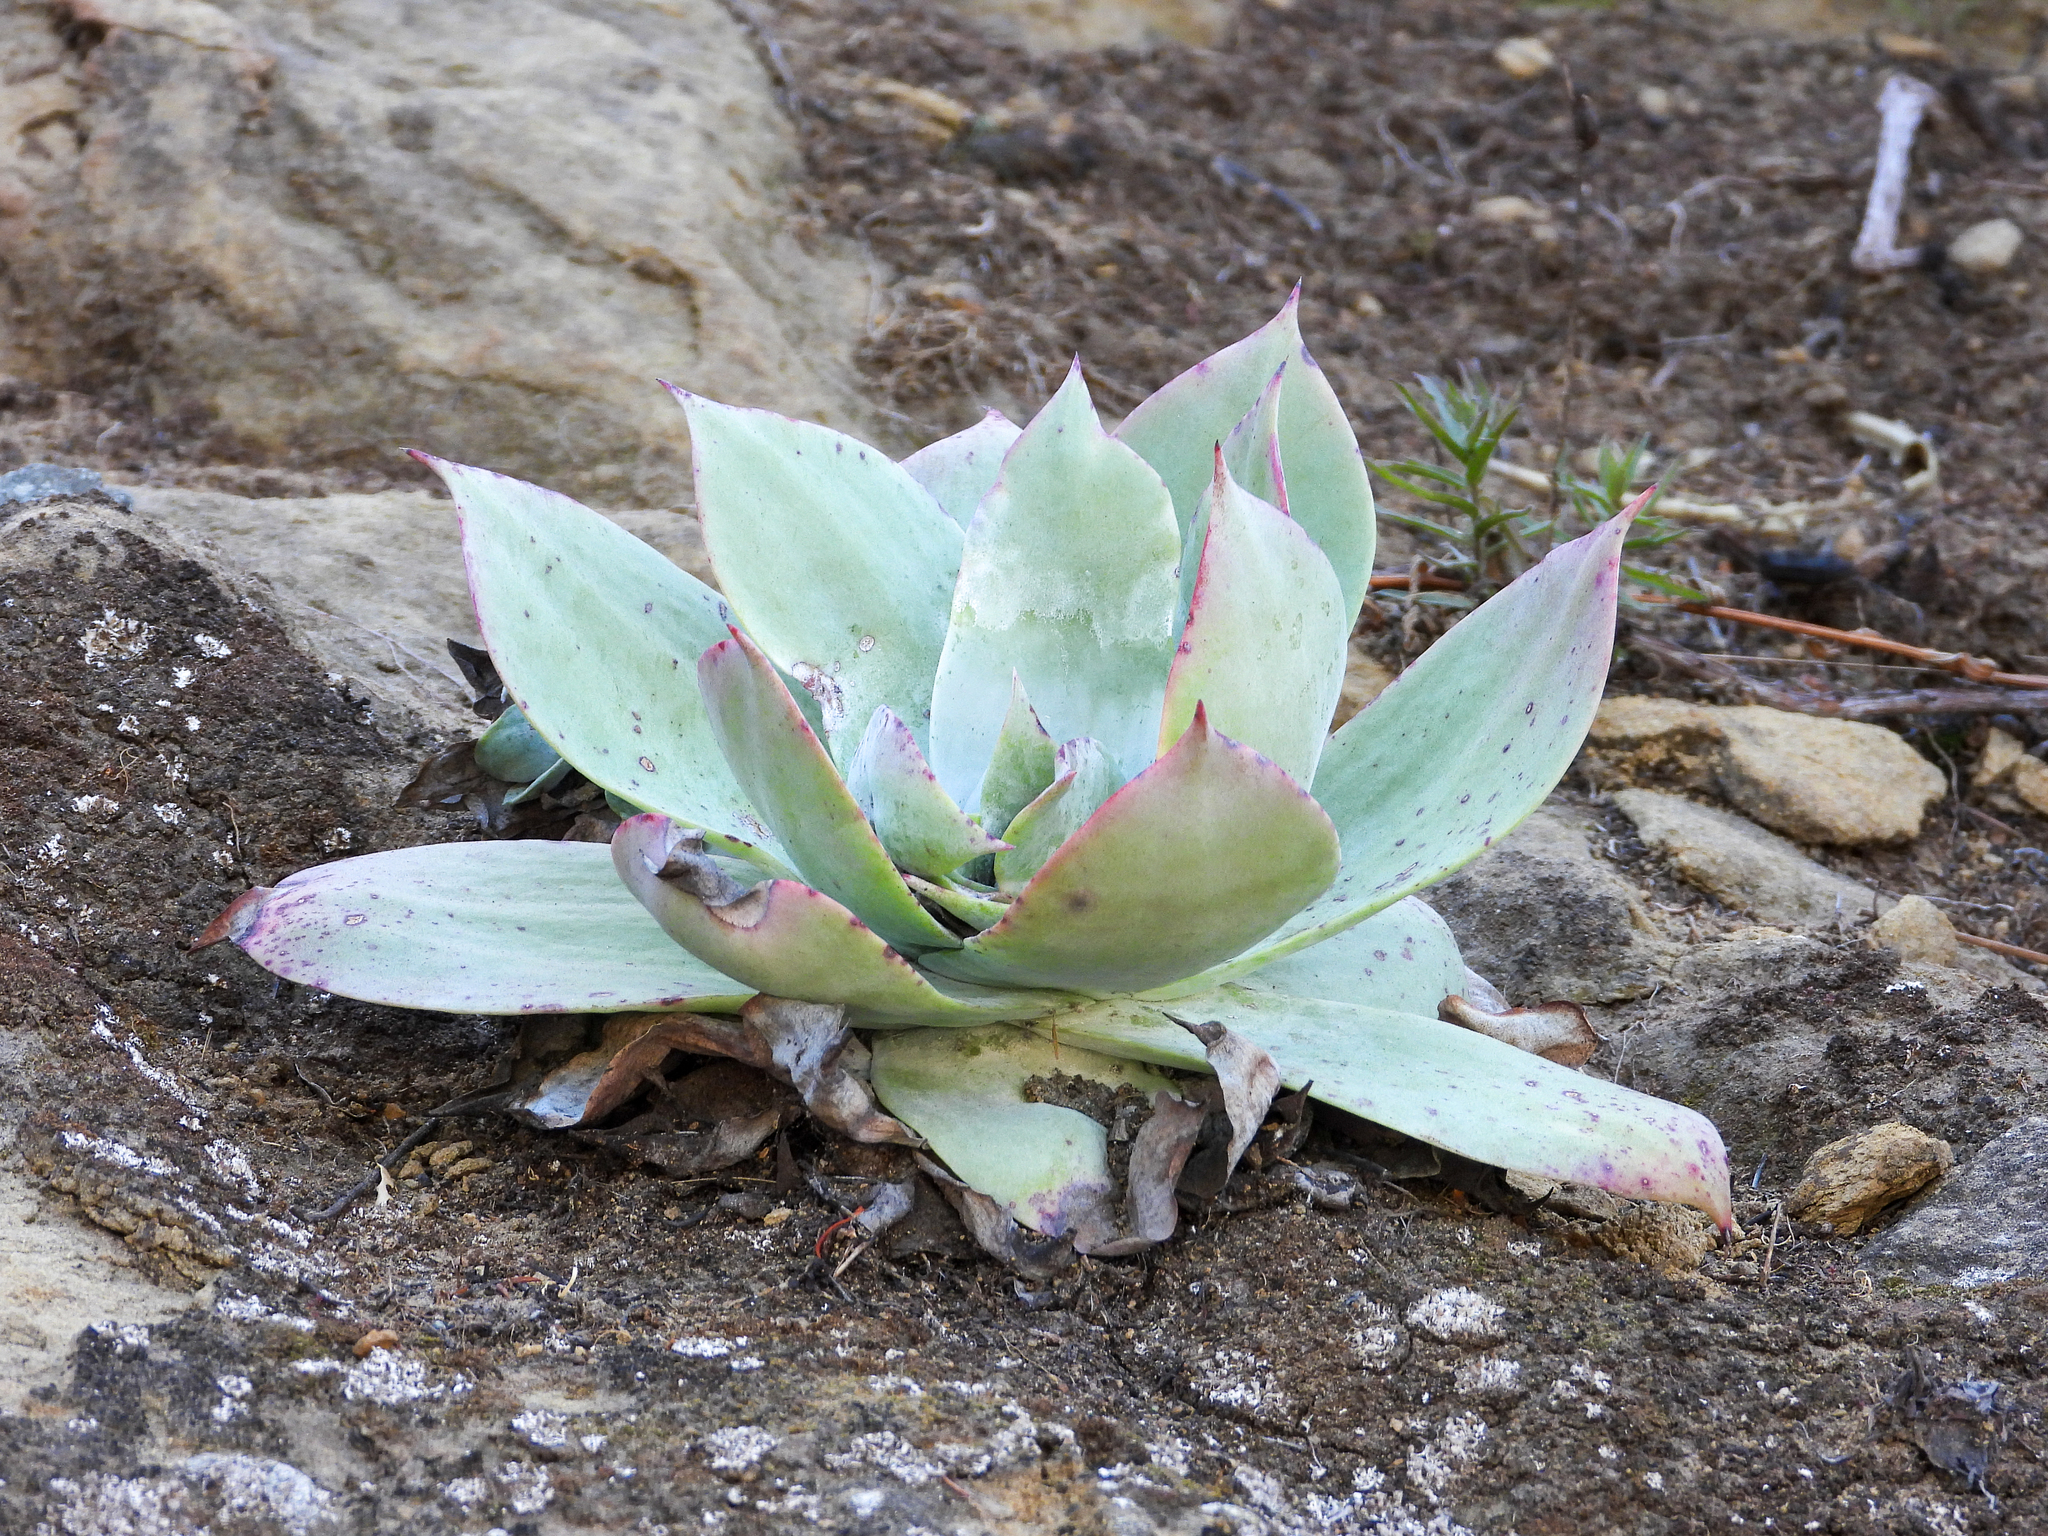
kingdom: Plantae
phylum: Tracheophyta
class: Magnoliopsida
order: Saxifragales
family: Crassulaceae
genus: Dudleya
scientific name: Dudleya pulverulenta
